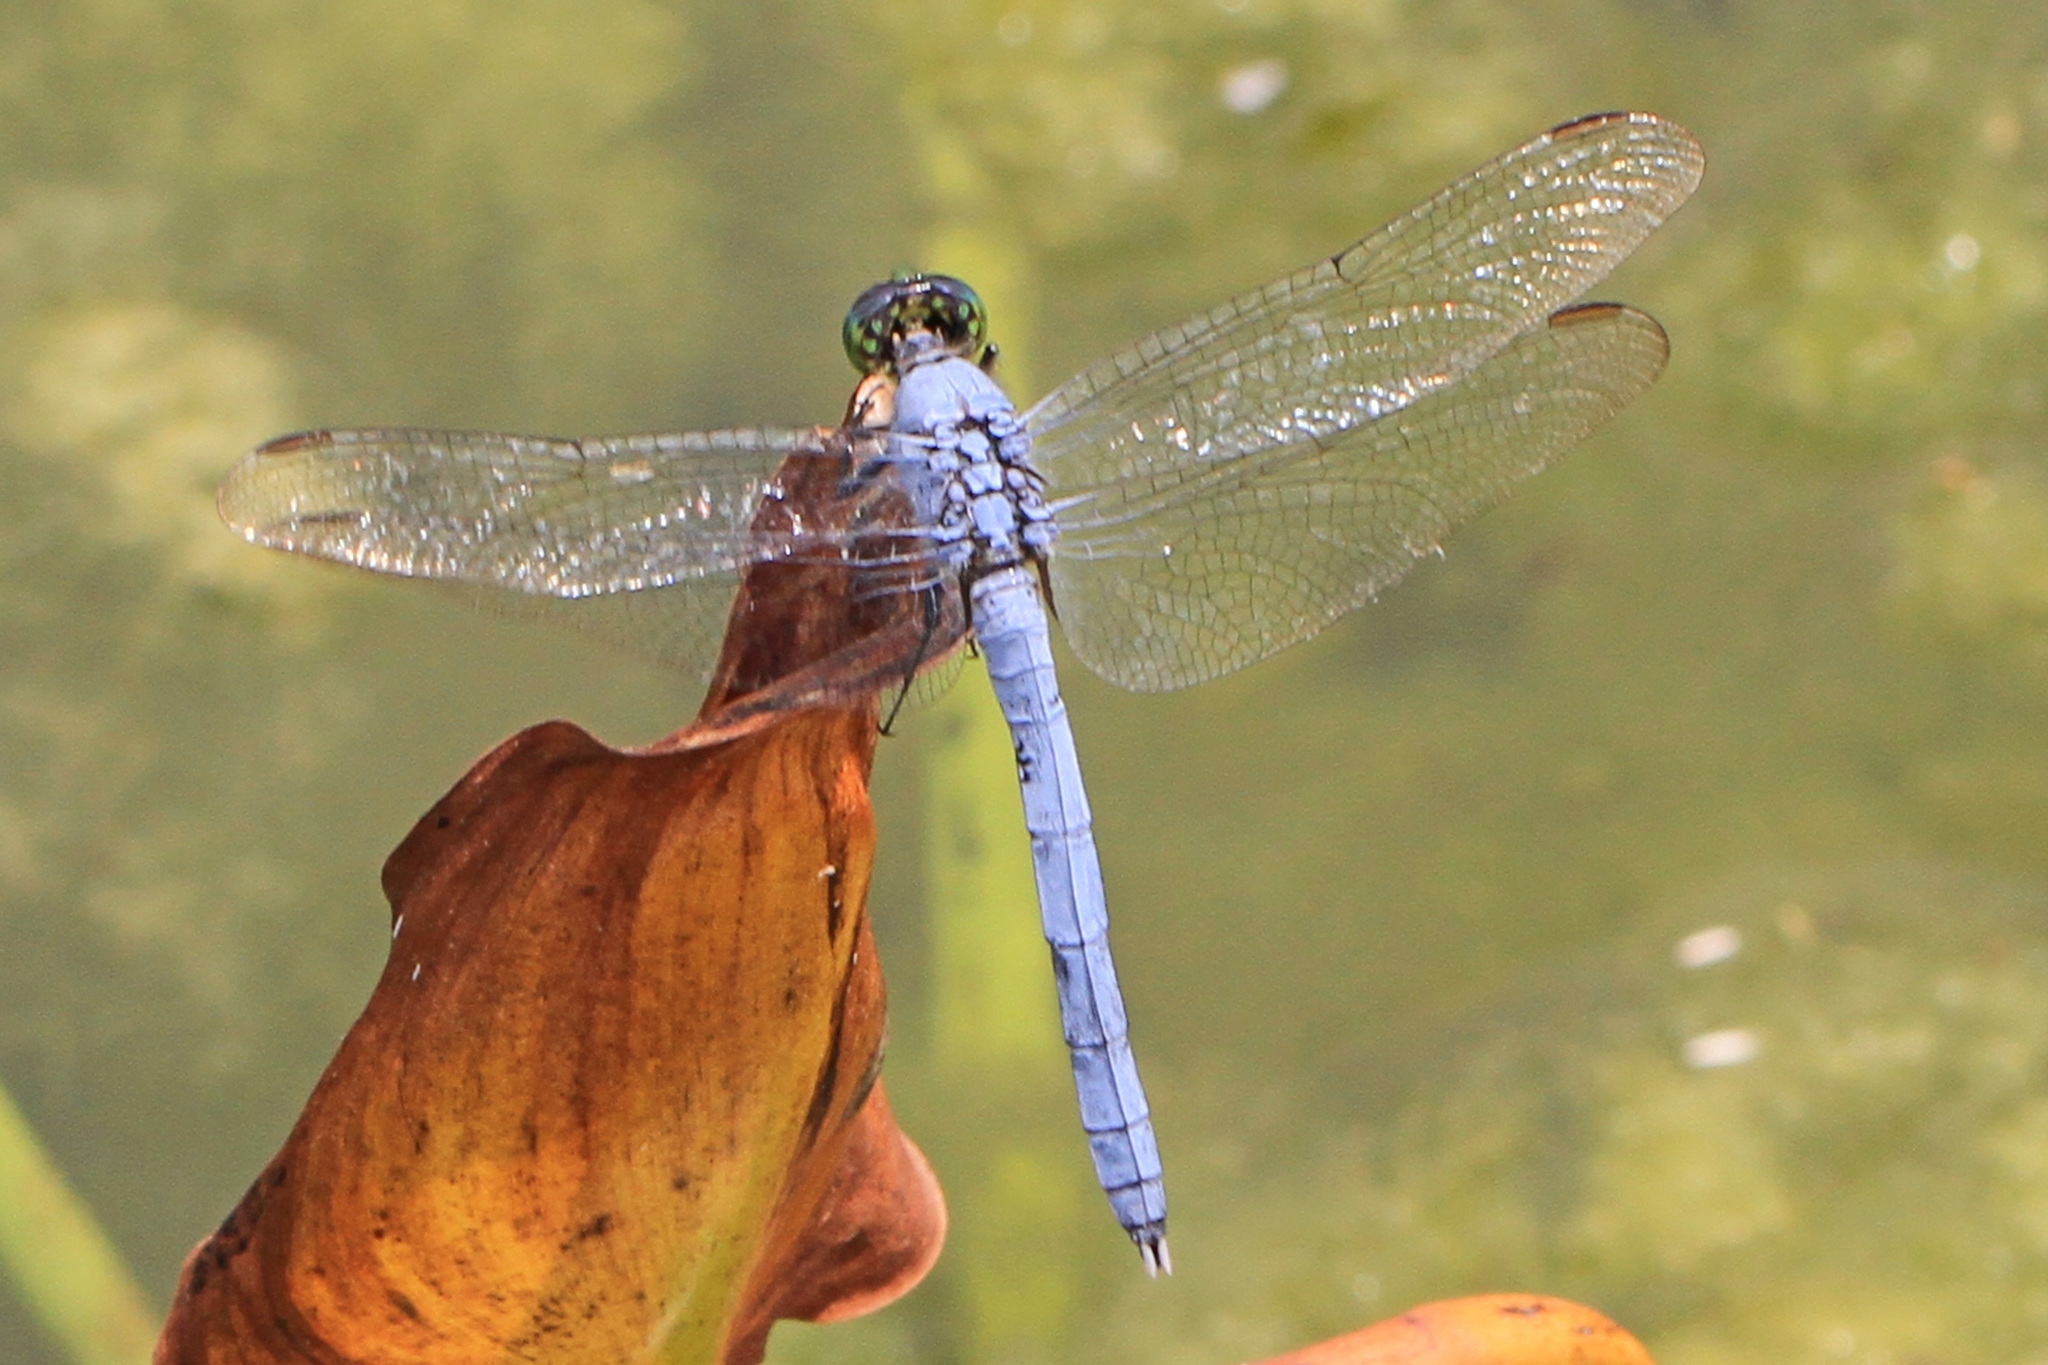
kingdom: Animalia
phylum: Arthropoda
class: Insecta
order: Odonata
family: Libellulidae
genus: Erythemis
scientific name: Erythemis simplicicollis
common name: Eastern pondhawk
